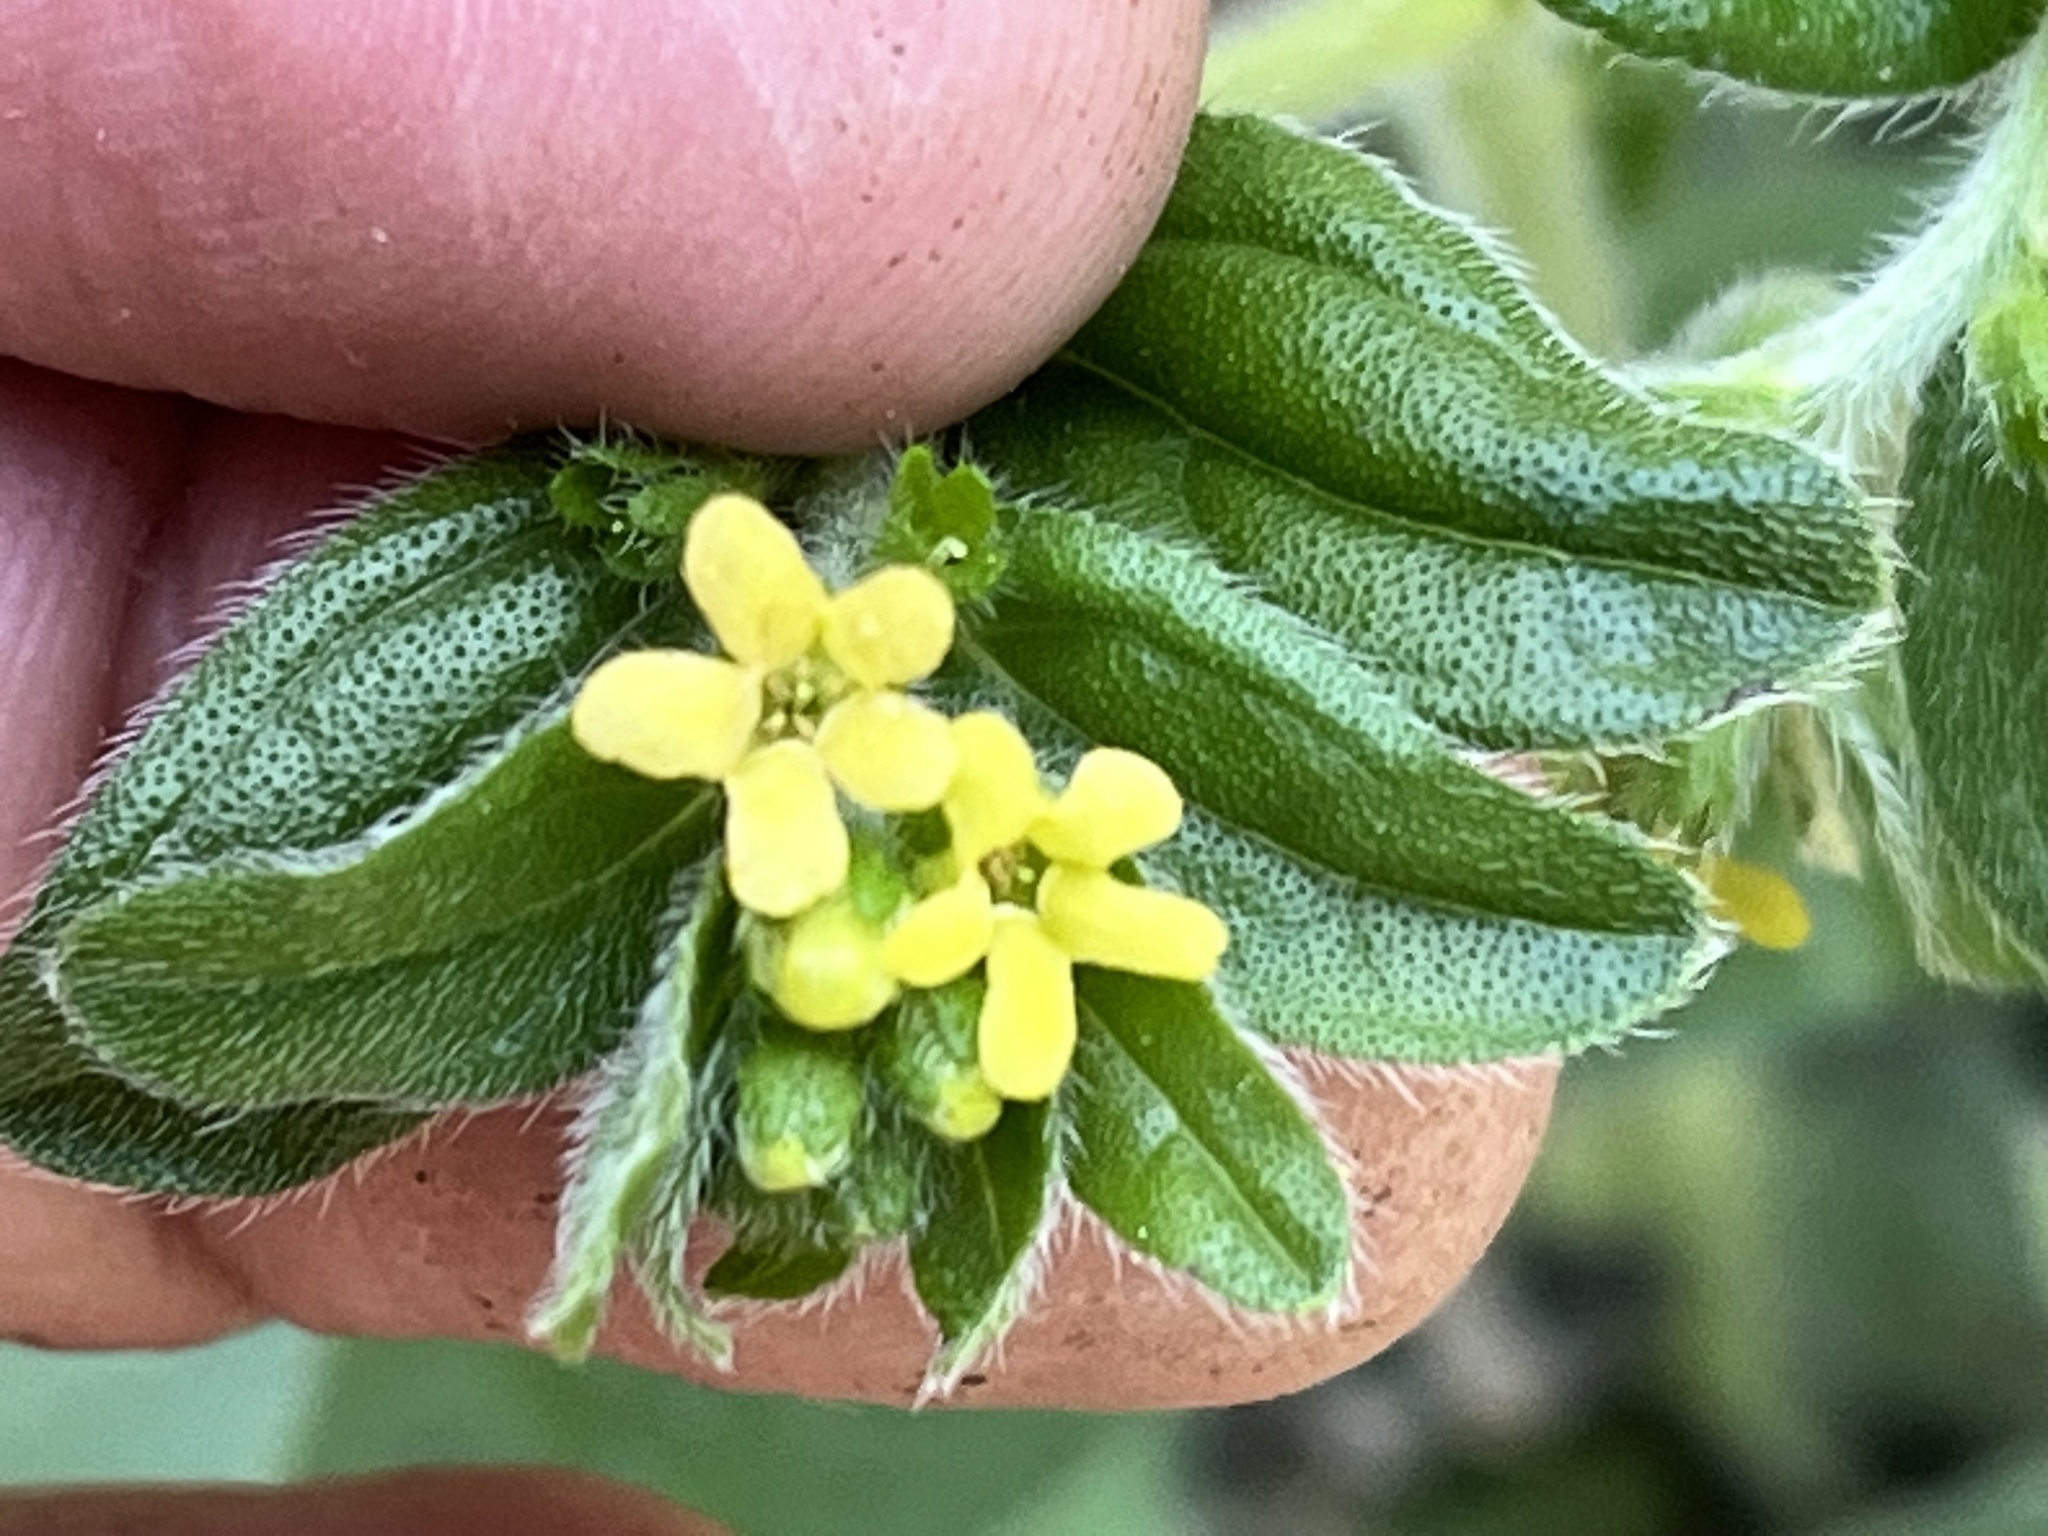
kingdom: Plantae
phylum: Tracheophyta
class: Magnoliopsida
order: Boraginales
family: Boraginaceae
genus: Lithospermum
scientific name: Lithospermum tuberosum
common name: Southern stoneseed
